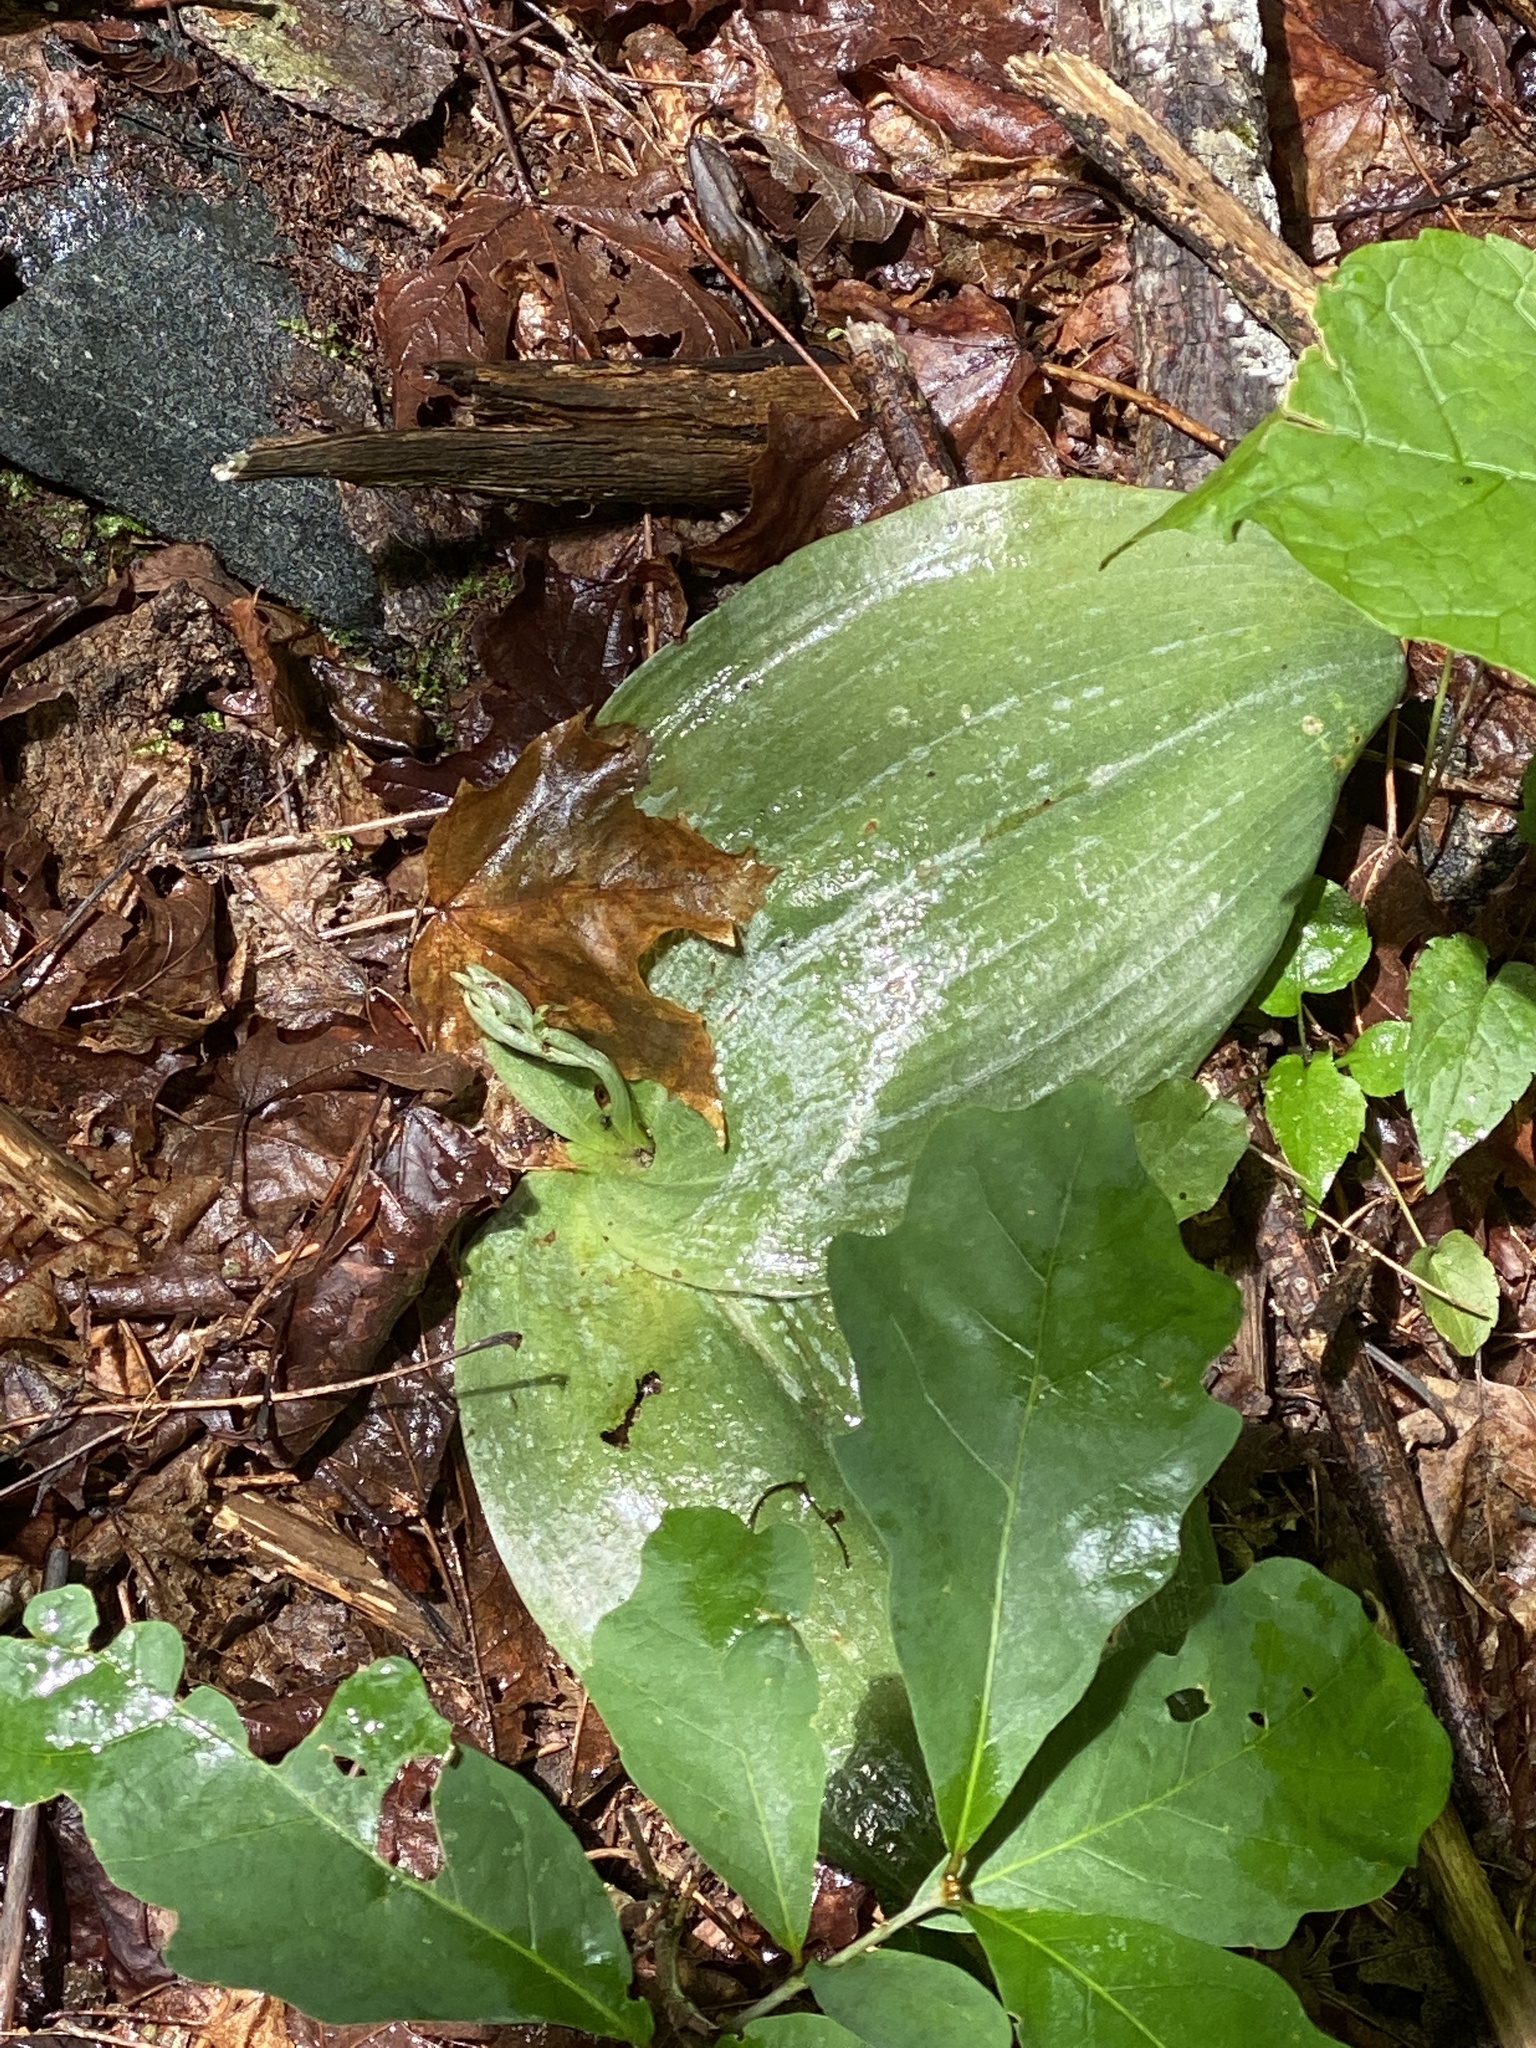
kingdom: Plantae
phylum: Tracheophyta
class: Liliopsida
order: Asparagales
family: Orchidaceae
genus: Platanthera
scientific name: Platanthera orbiculata
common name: Large round-leaved orchid
